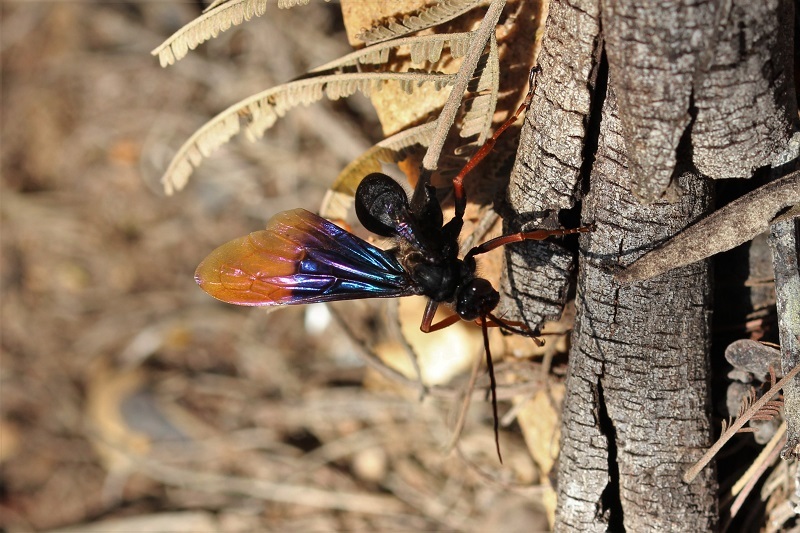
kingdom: Animalia
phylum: Arthropoda
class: Insecta
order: Hymenoptera
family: Pompilidae
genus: Java
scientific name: Java caroliwaterhousei
